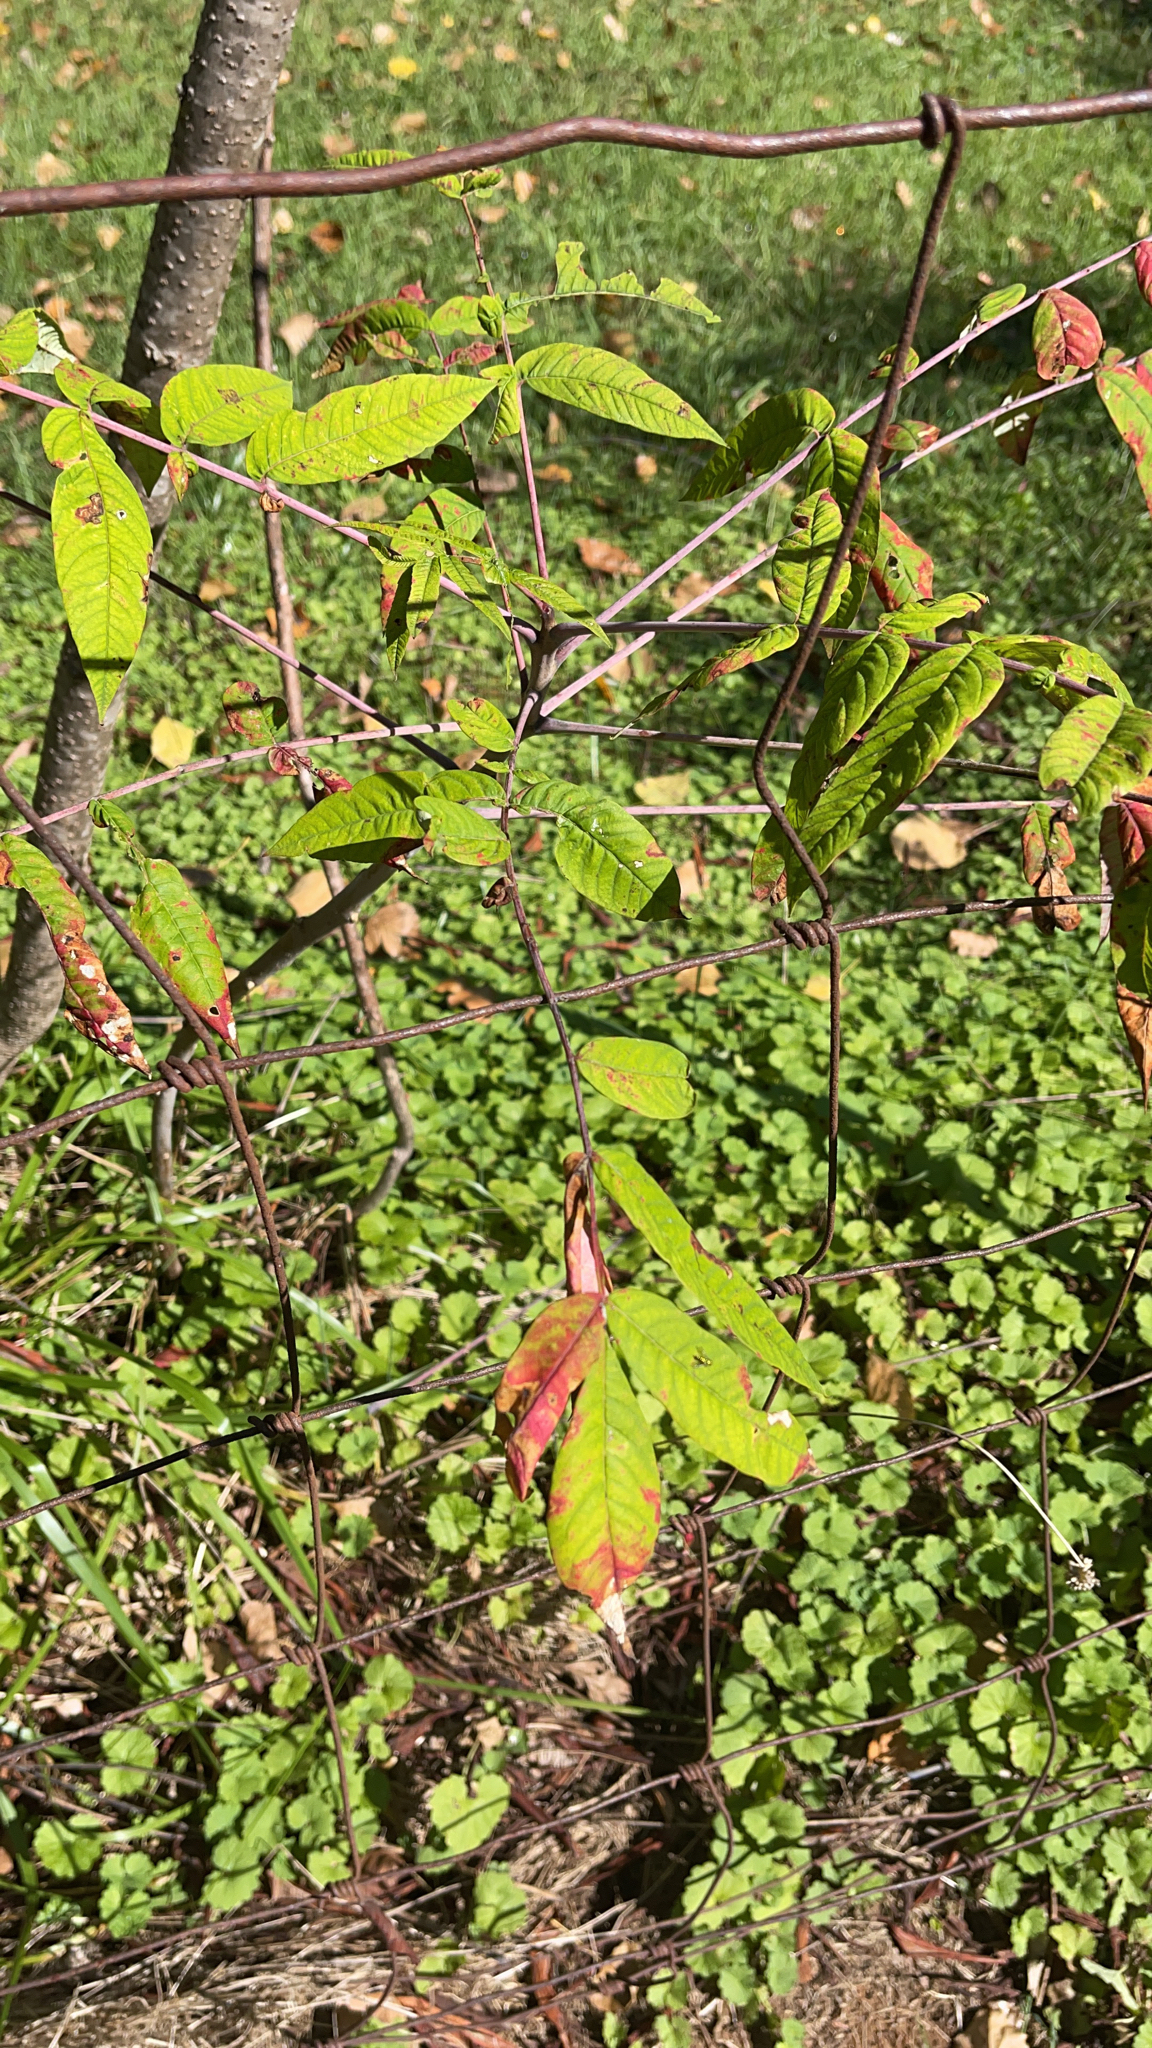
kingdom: Plantae
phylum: Tracheophyta
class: Magnoliopsida
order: Sapindales
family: Anacardiaceae
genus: Rhus
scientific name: Rhus glabra
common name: Scarlet sumac
